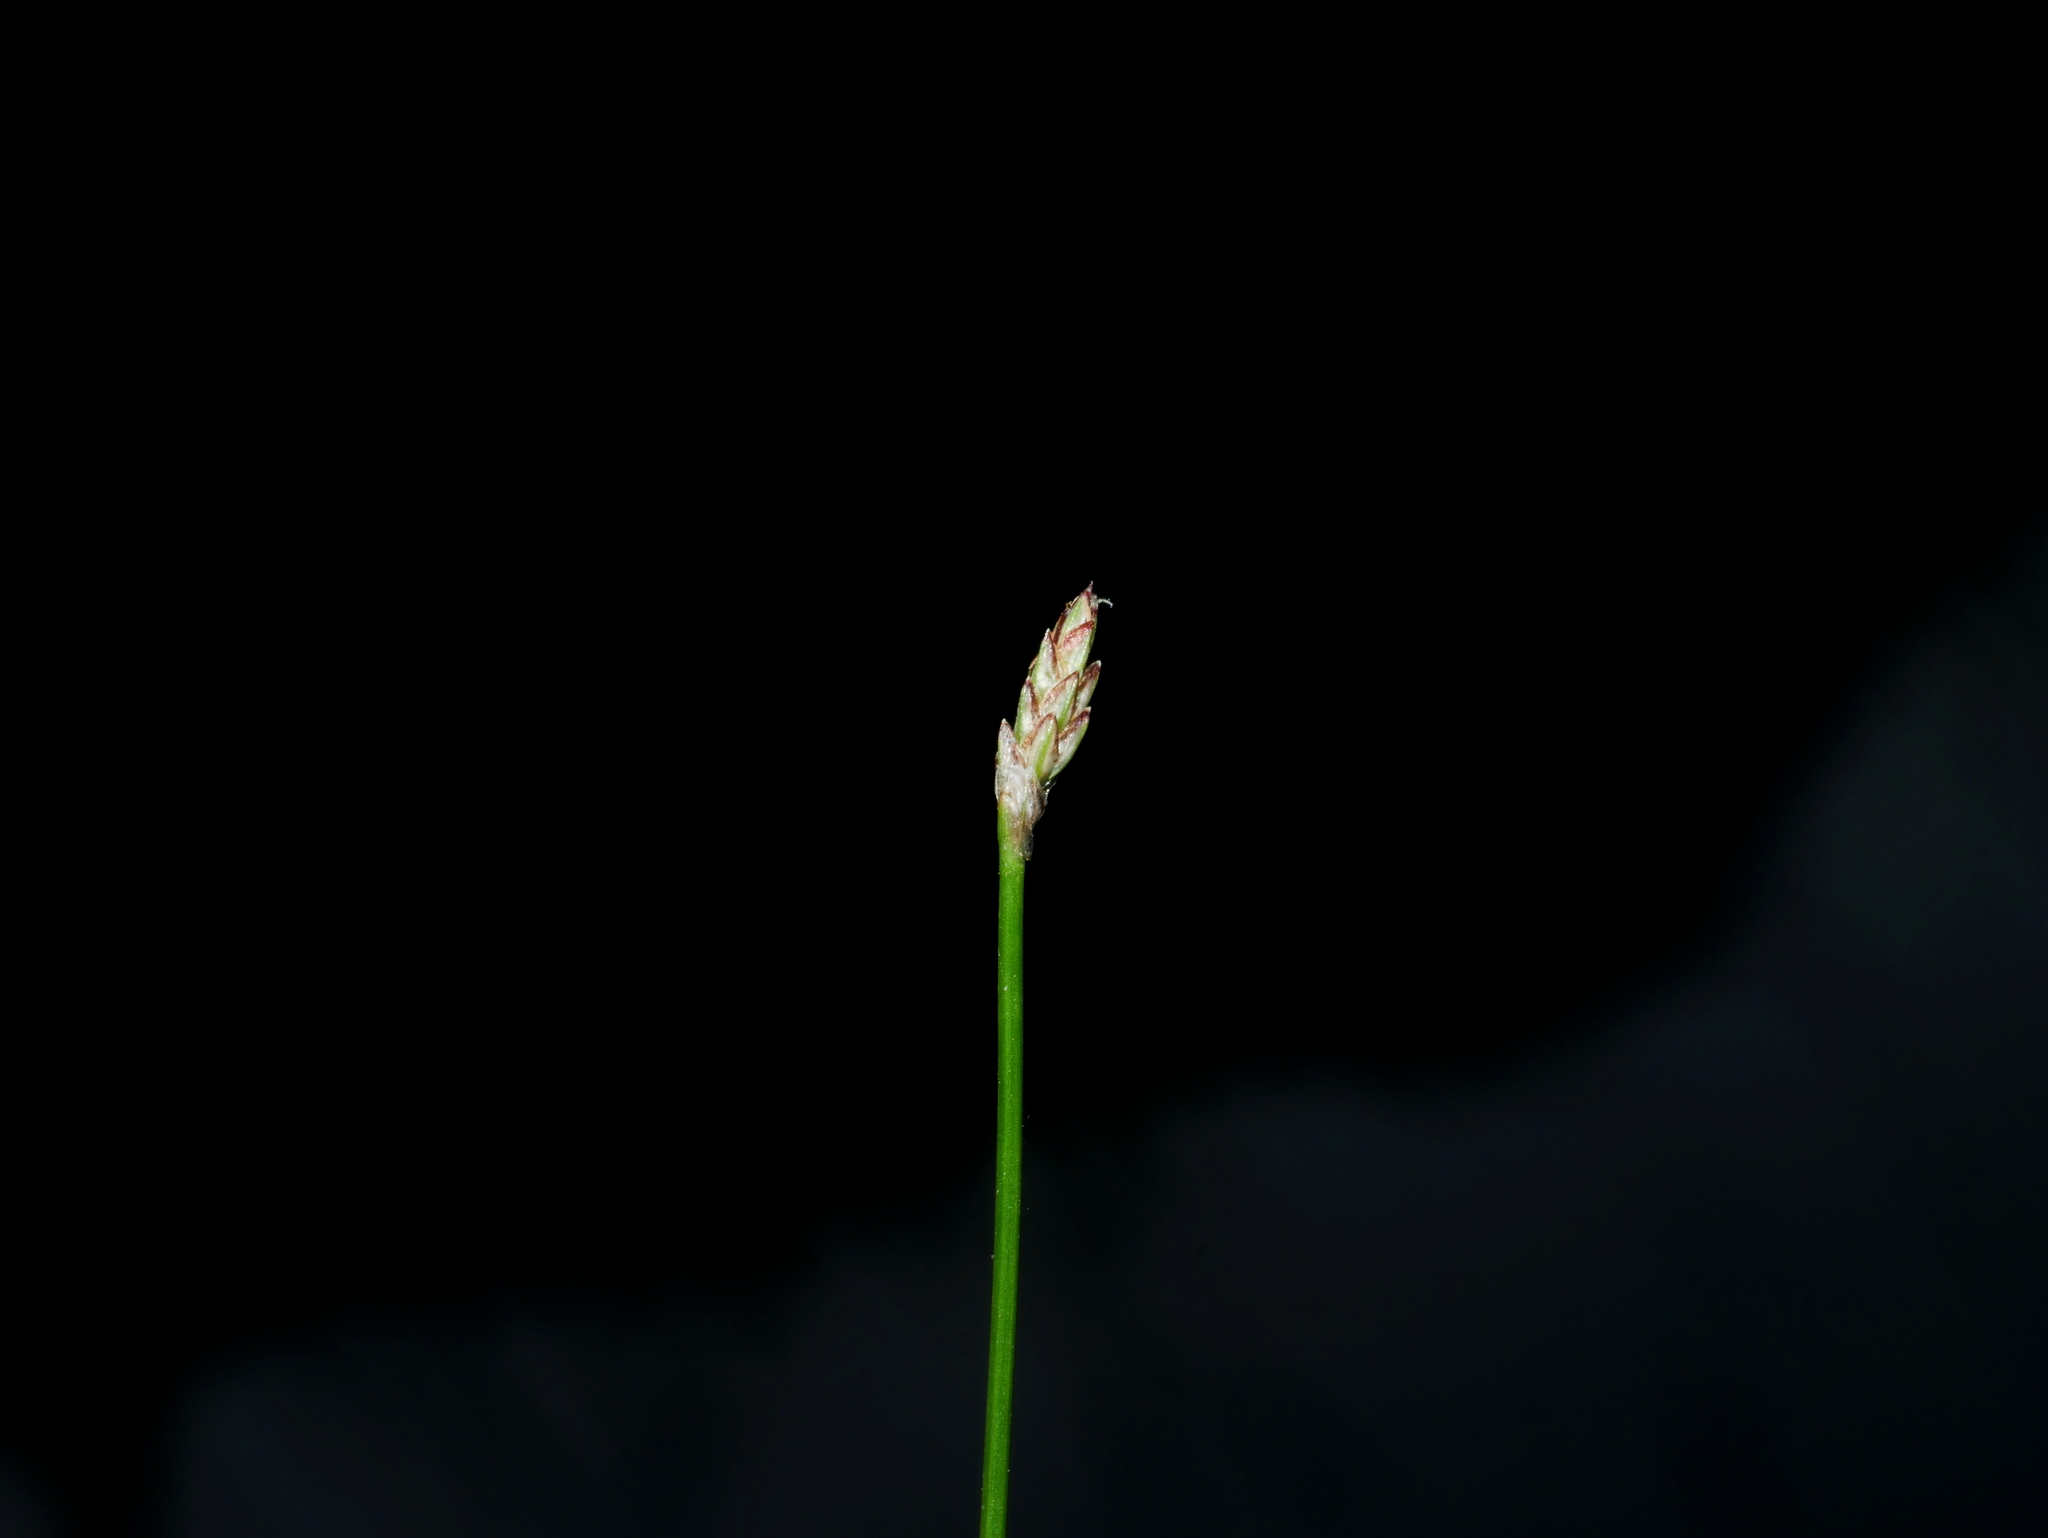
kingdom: Plantae
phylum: Tracheophyta
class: Liliopsida
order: Poales
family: Cyperaceae
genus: Eleocharis
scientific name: Eleocharis pellucida
